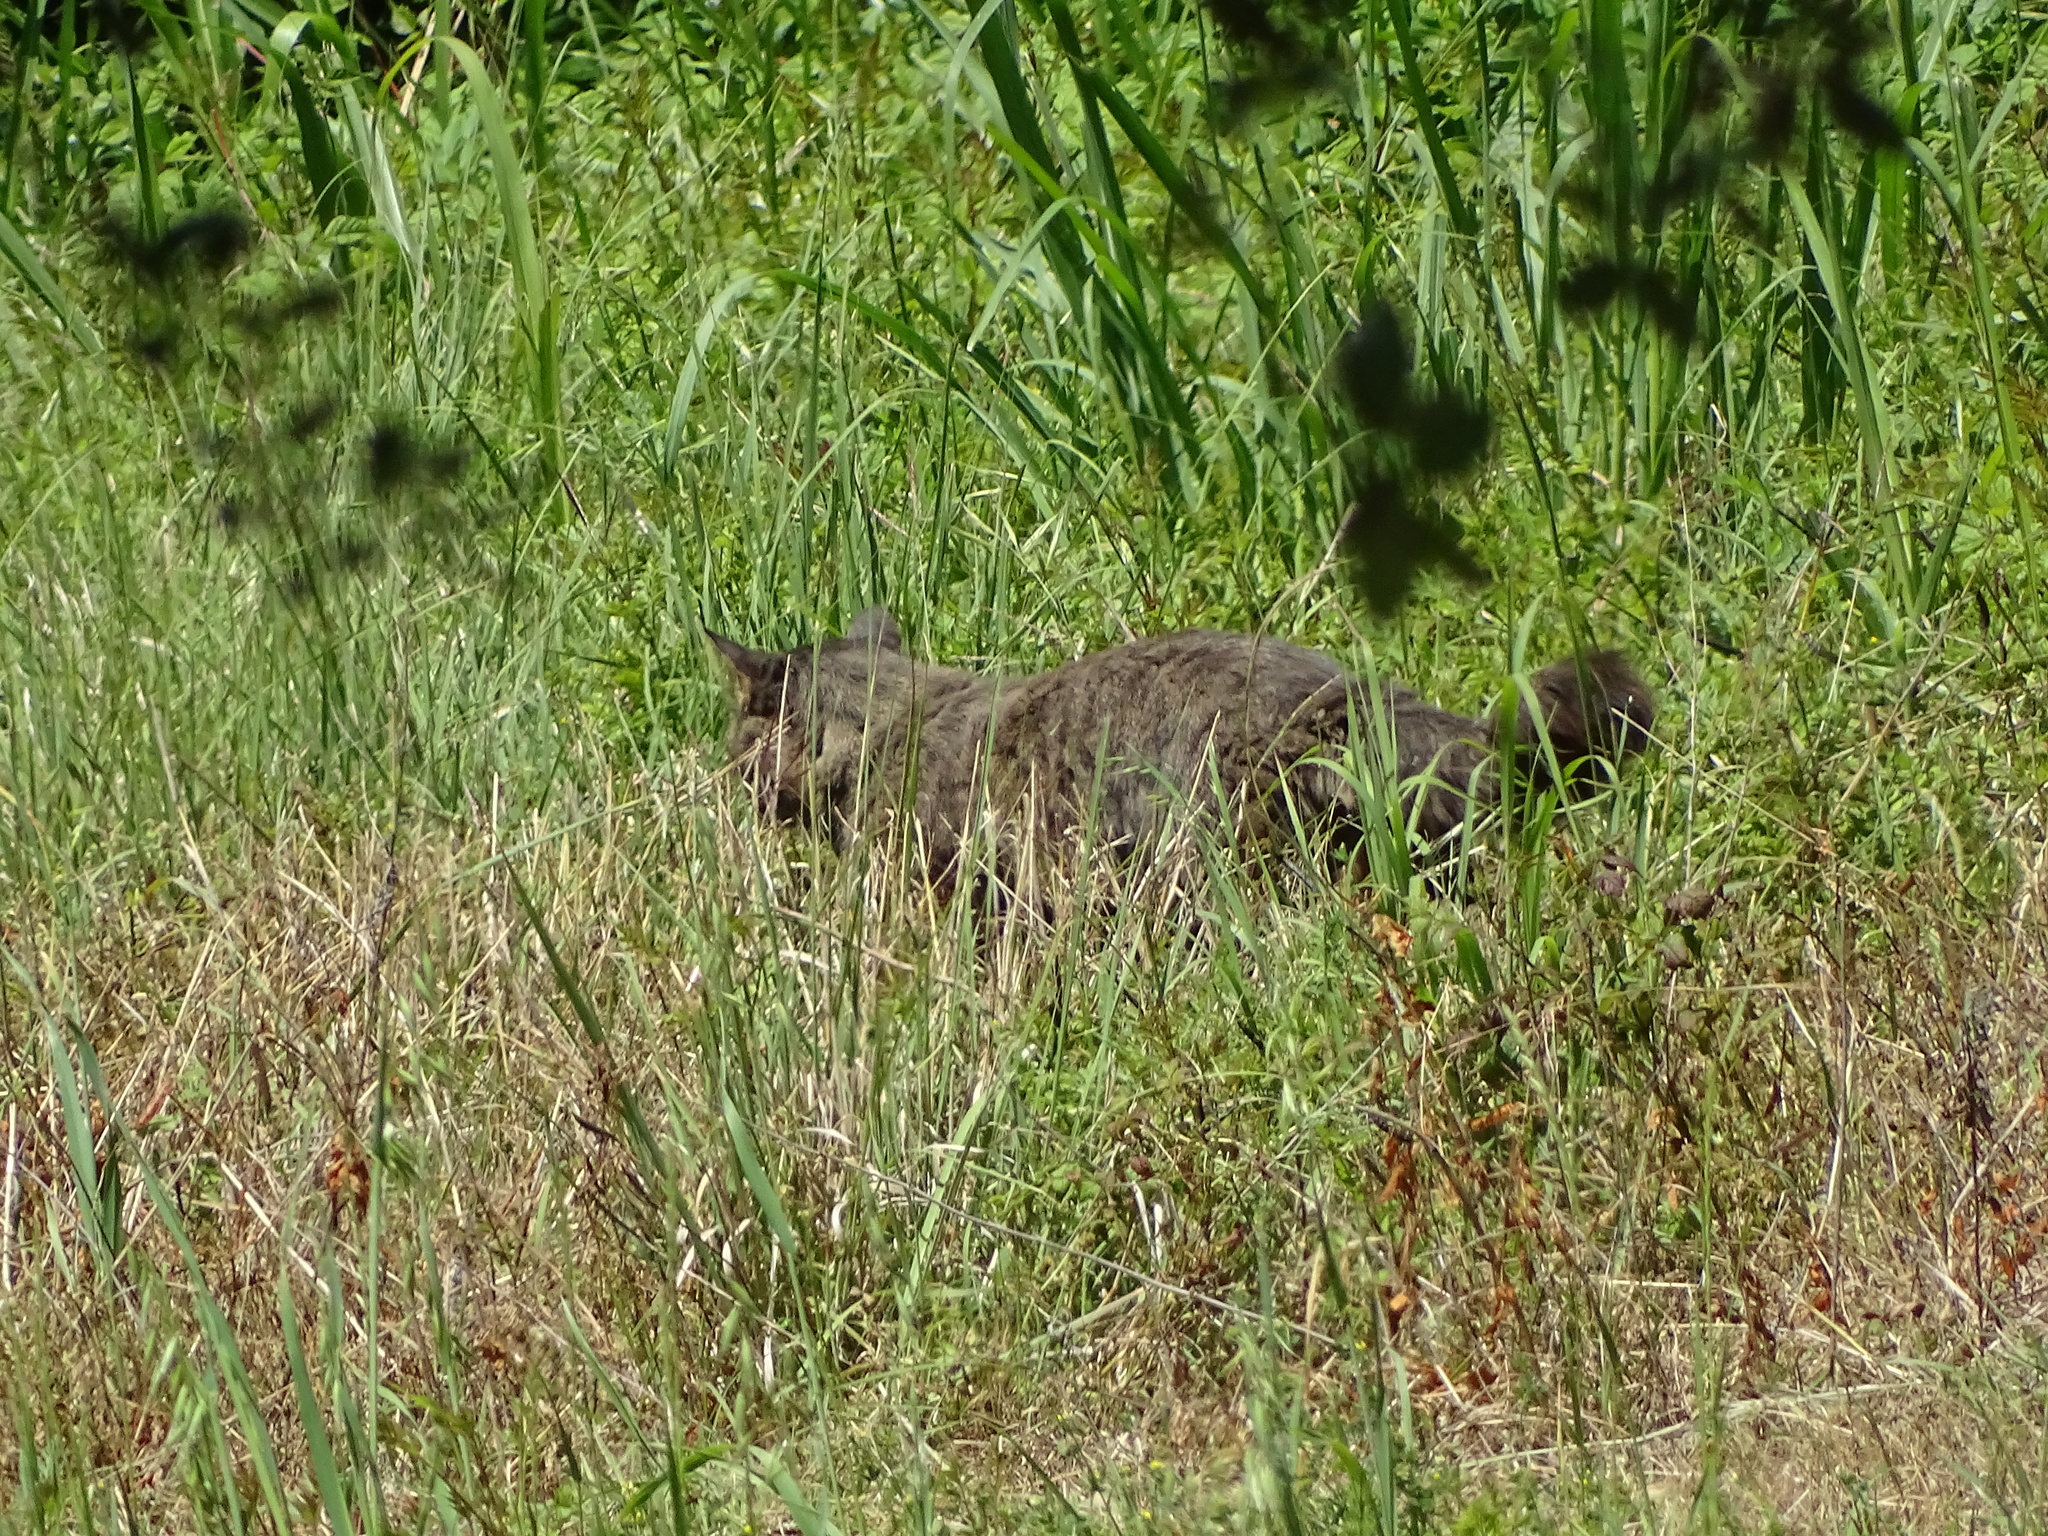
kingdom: Animalia
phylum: Chordata
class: Mammalia
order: Carnivora
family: Felidae
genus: Felis
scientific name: Felis catus
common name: Domestic cat
